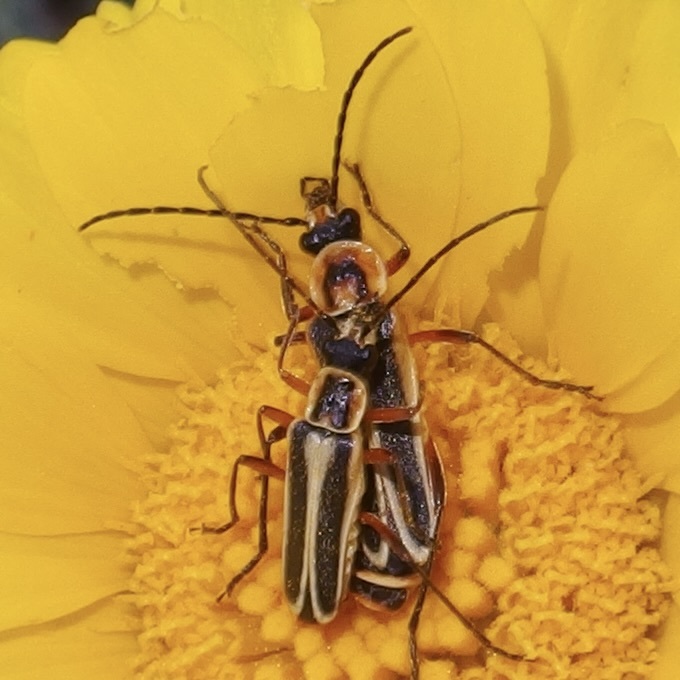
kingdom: Animalia
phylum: Arthropoda
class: Insecta
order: Coleoptera
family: Cantharidae
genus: Chauliognathus
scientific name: Chauliognathus lewisi
